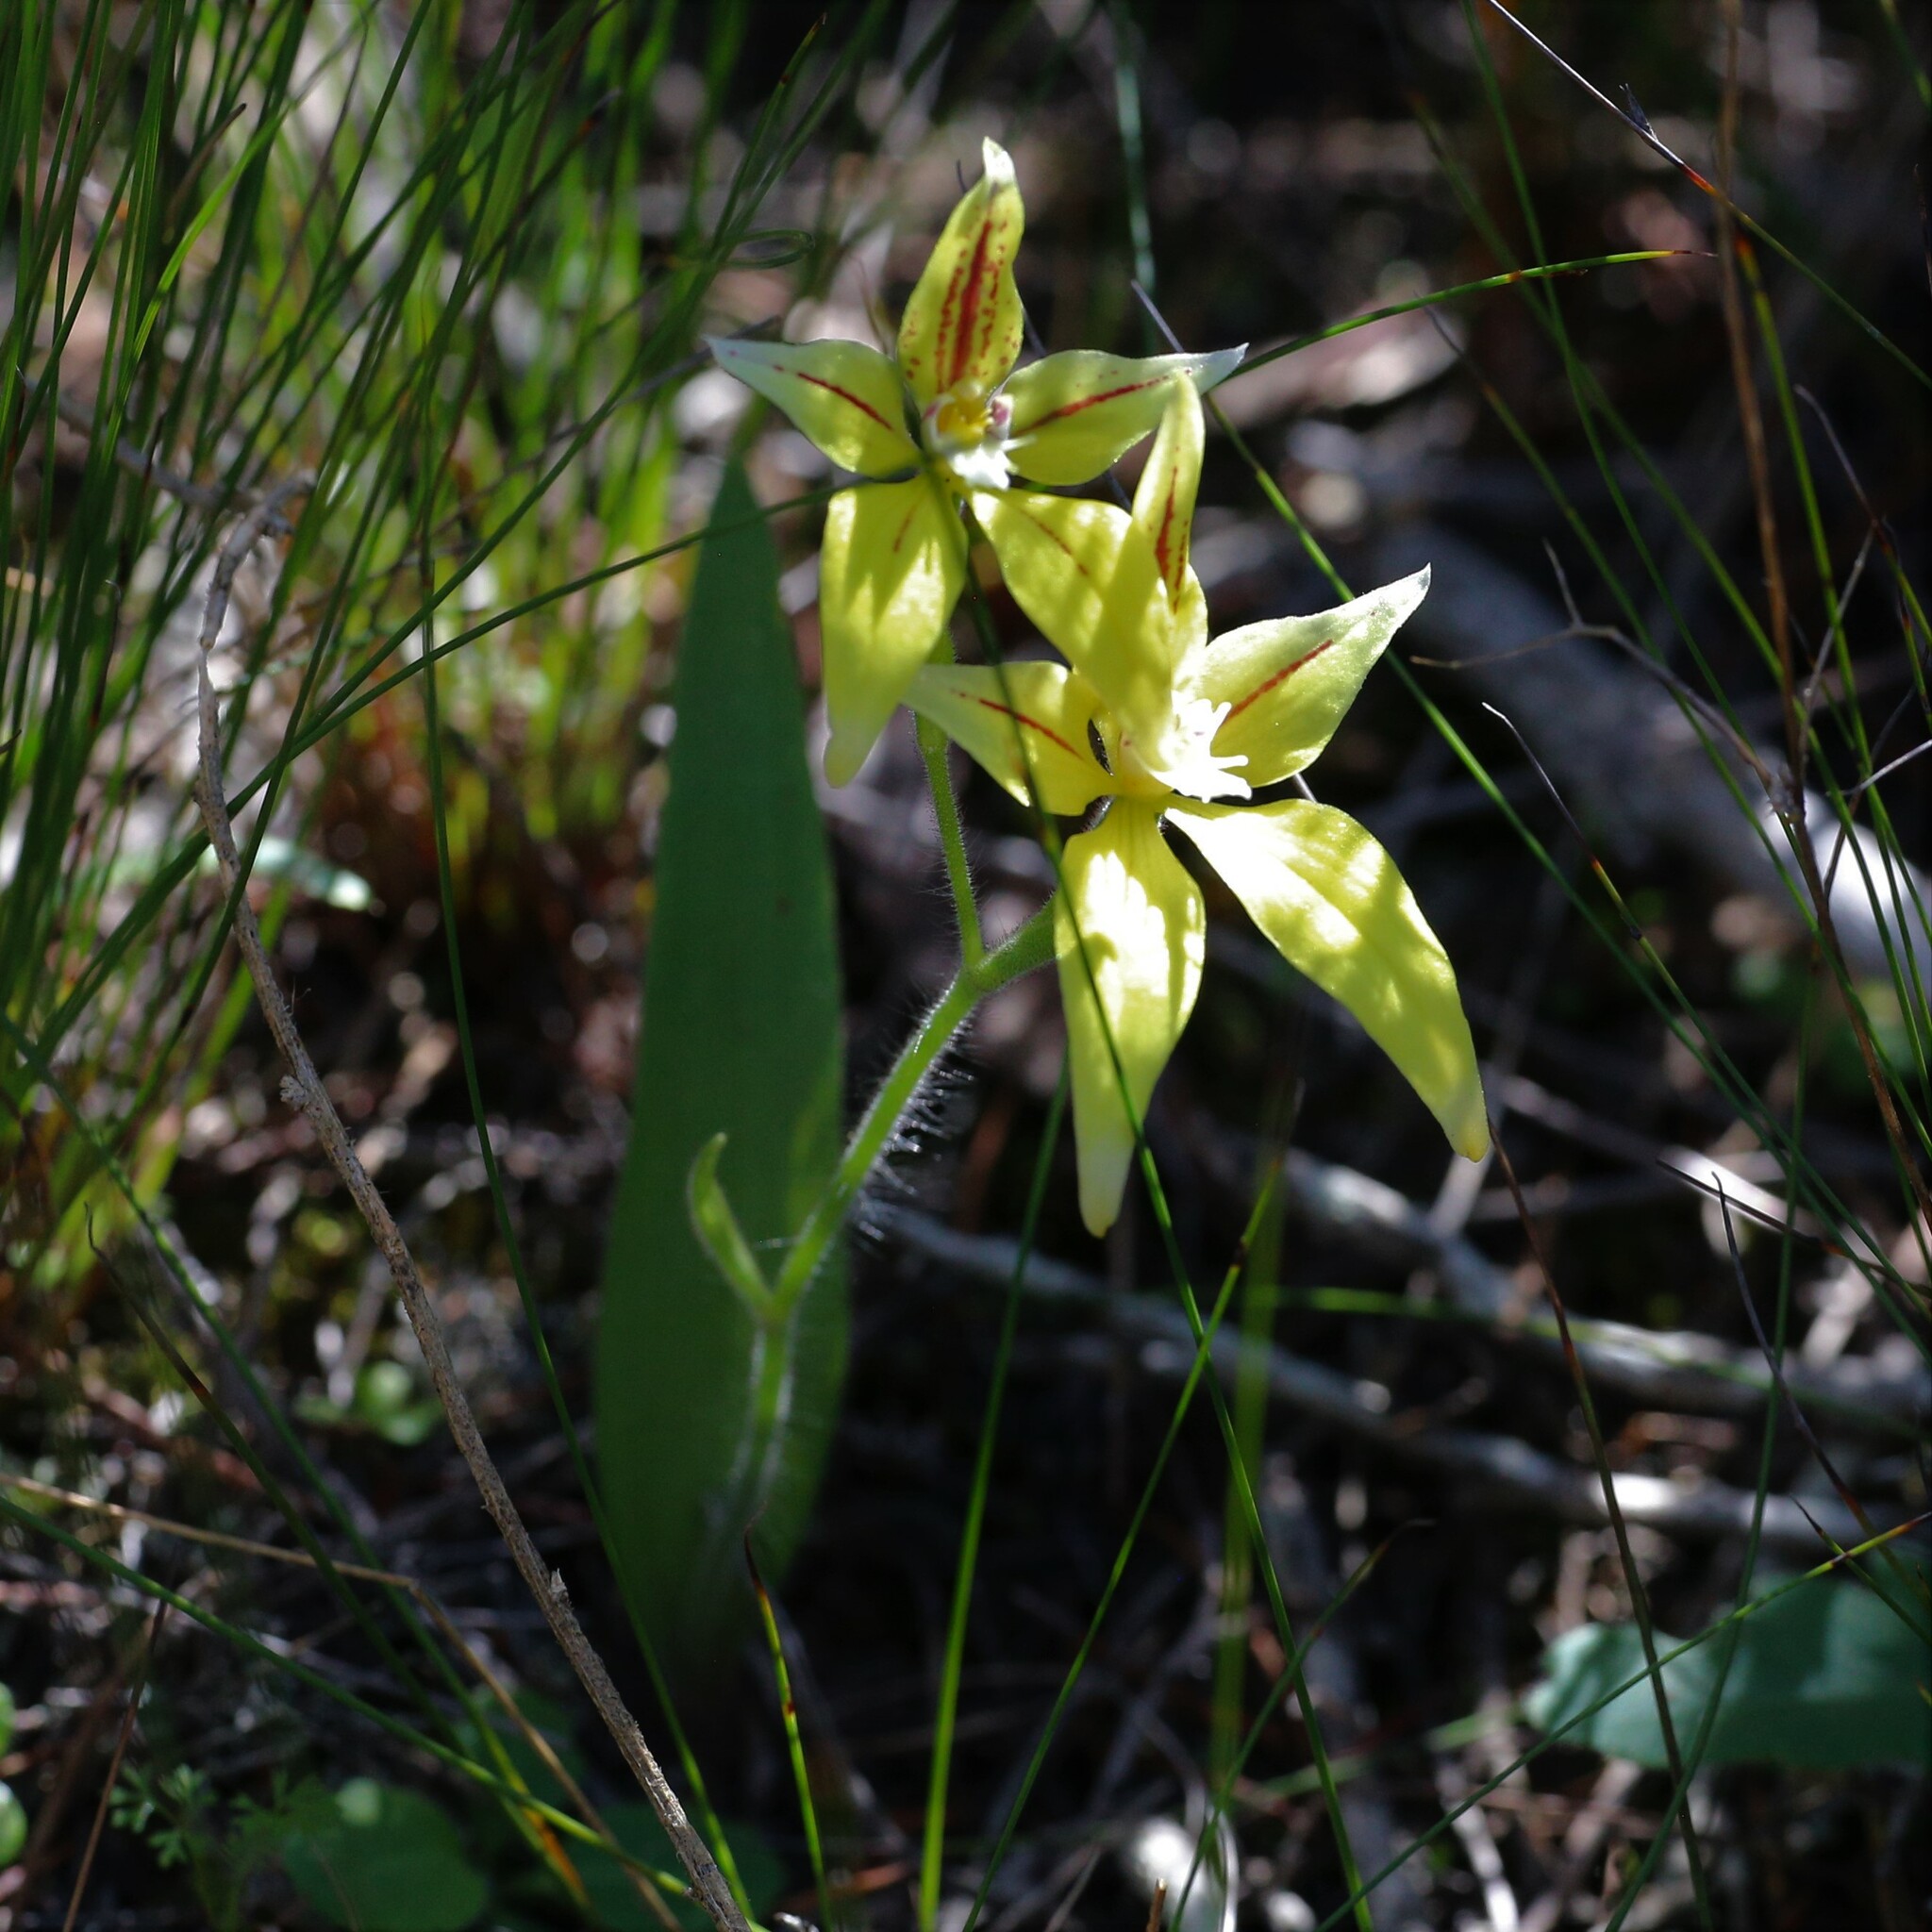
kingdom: Plantae
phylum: Tracheophyta
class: Liliopsida
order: Asparagales
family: Orchidaceae
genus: Caladenia
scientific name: Caladenia flava
